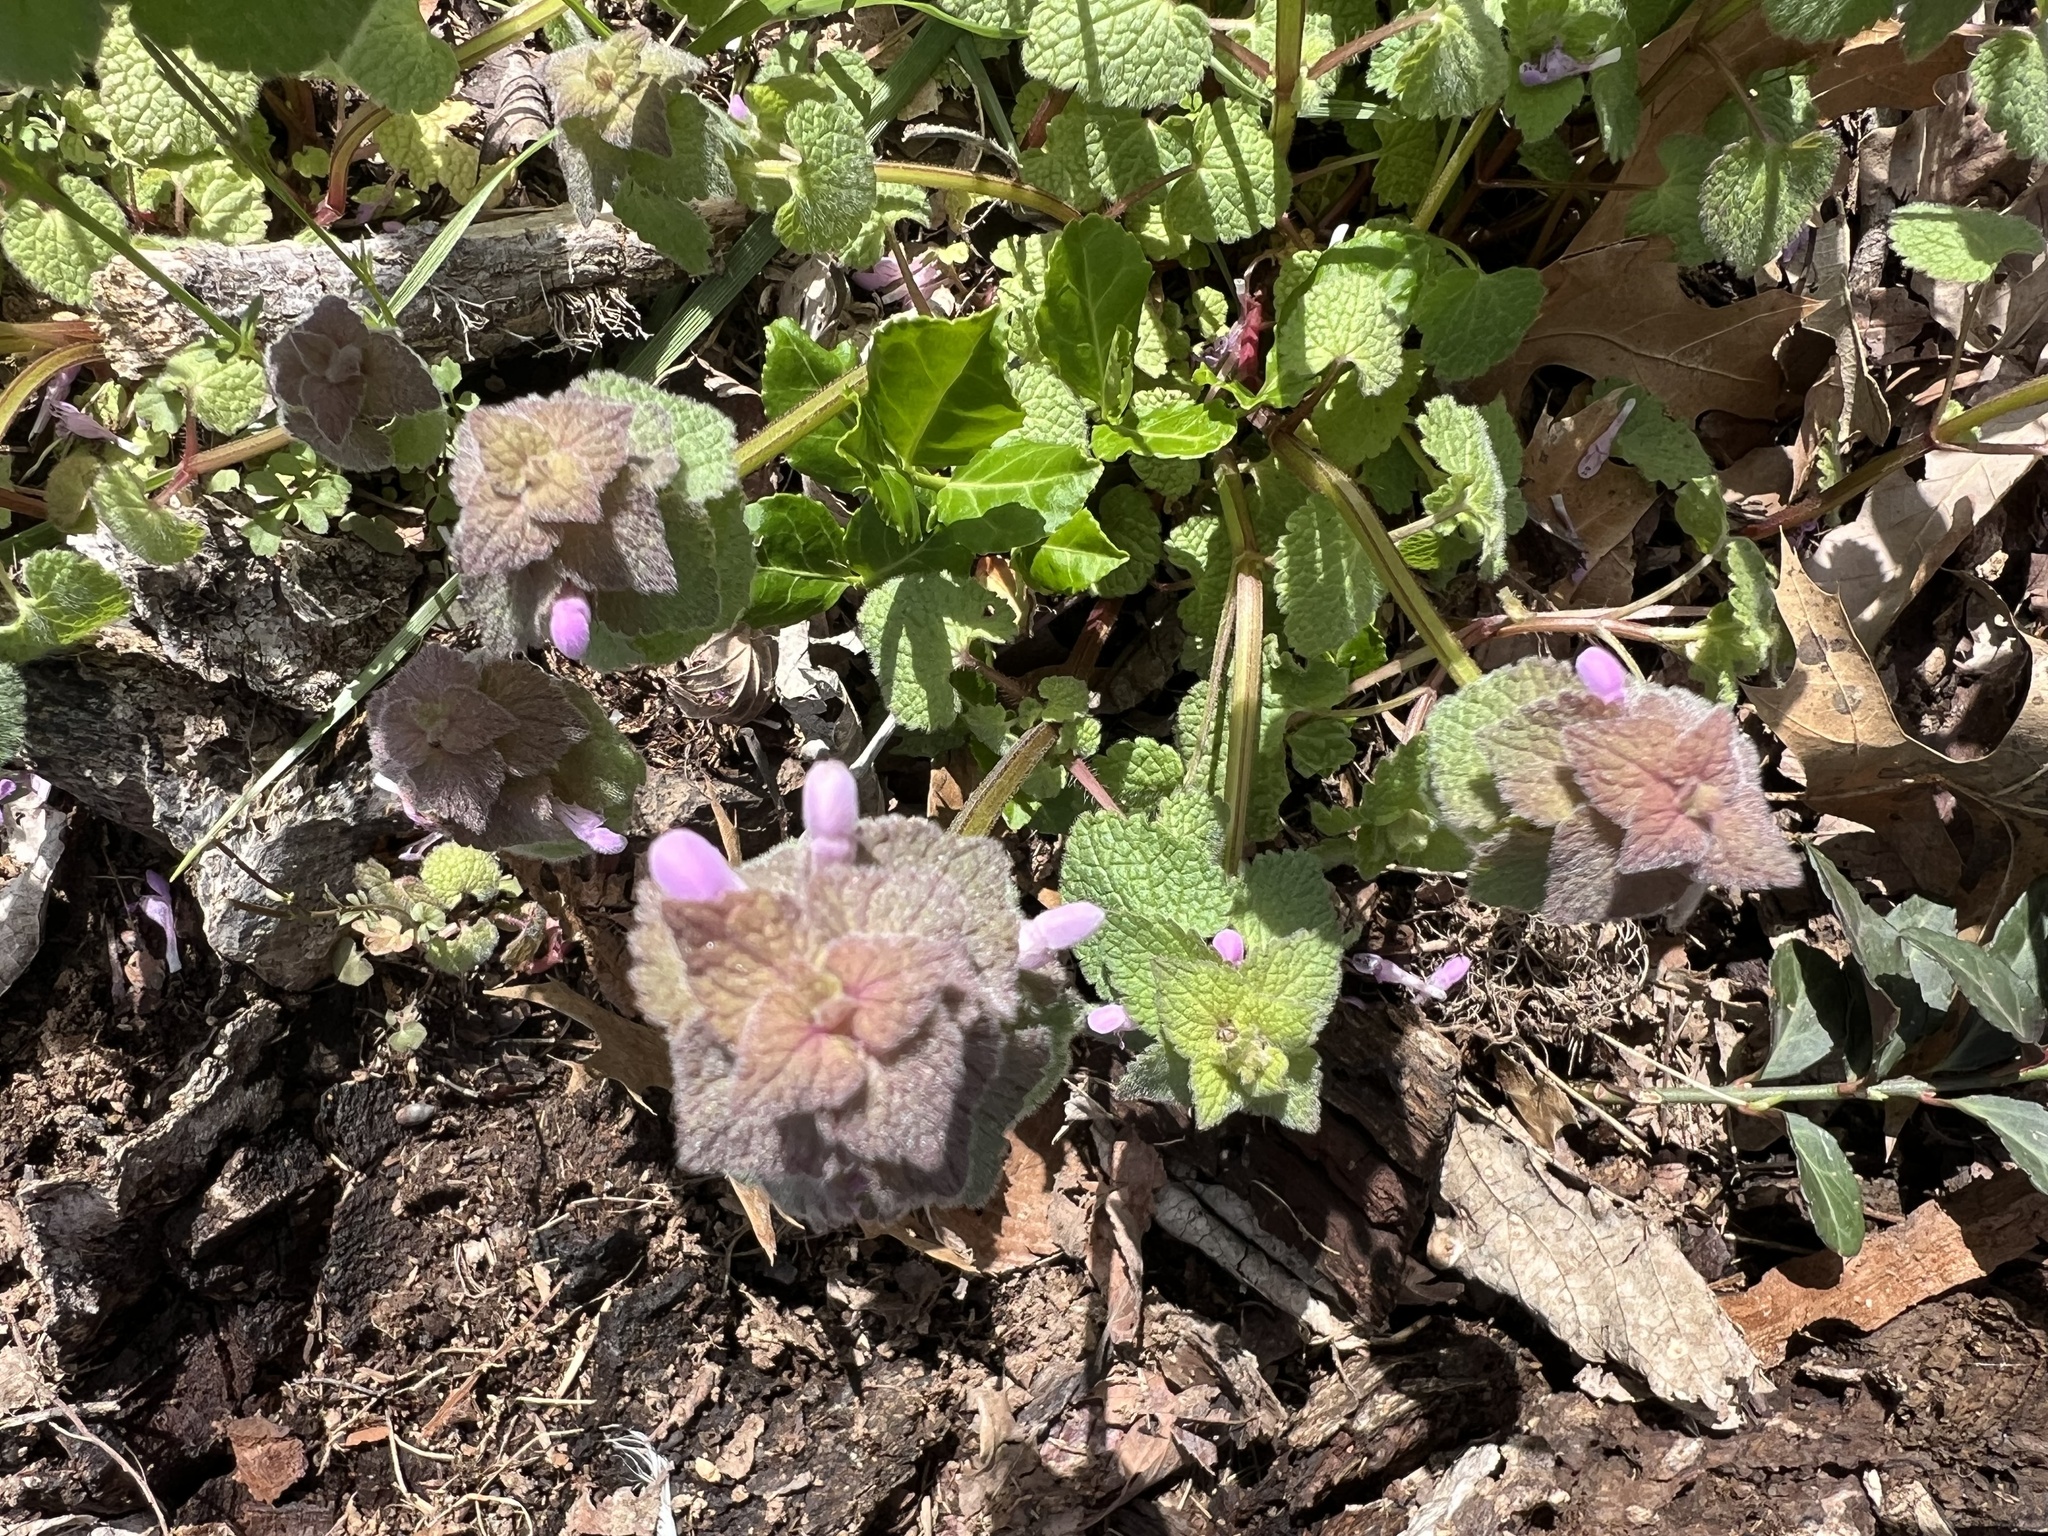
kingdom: Plantae
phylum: Tracheophyta
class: Magnoliopsida
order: Lamiales
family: Lamiaceae
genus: Lamium
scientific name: Lamium purpureum
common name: Red dead-nettle
